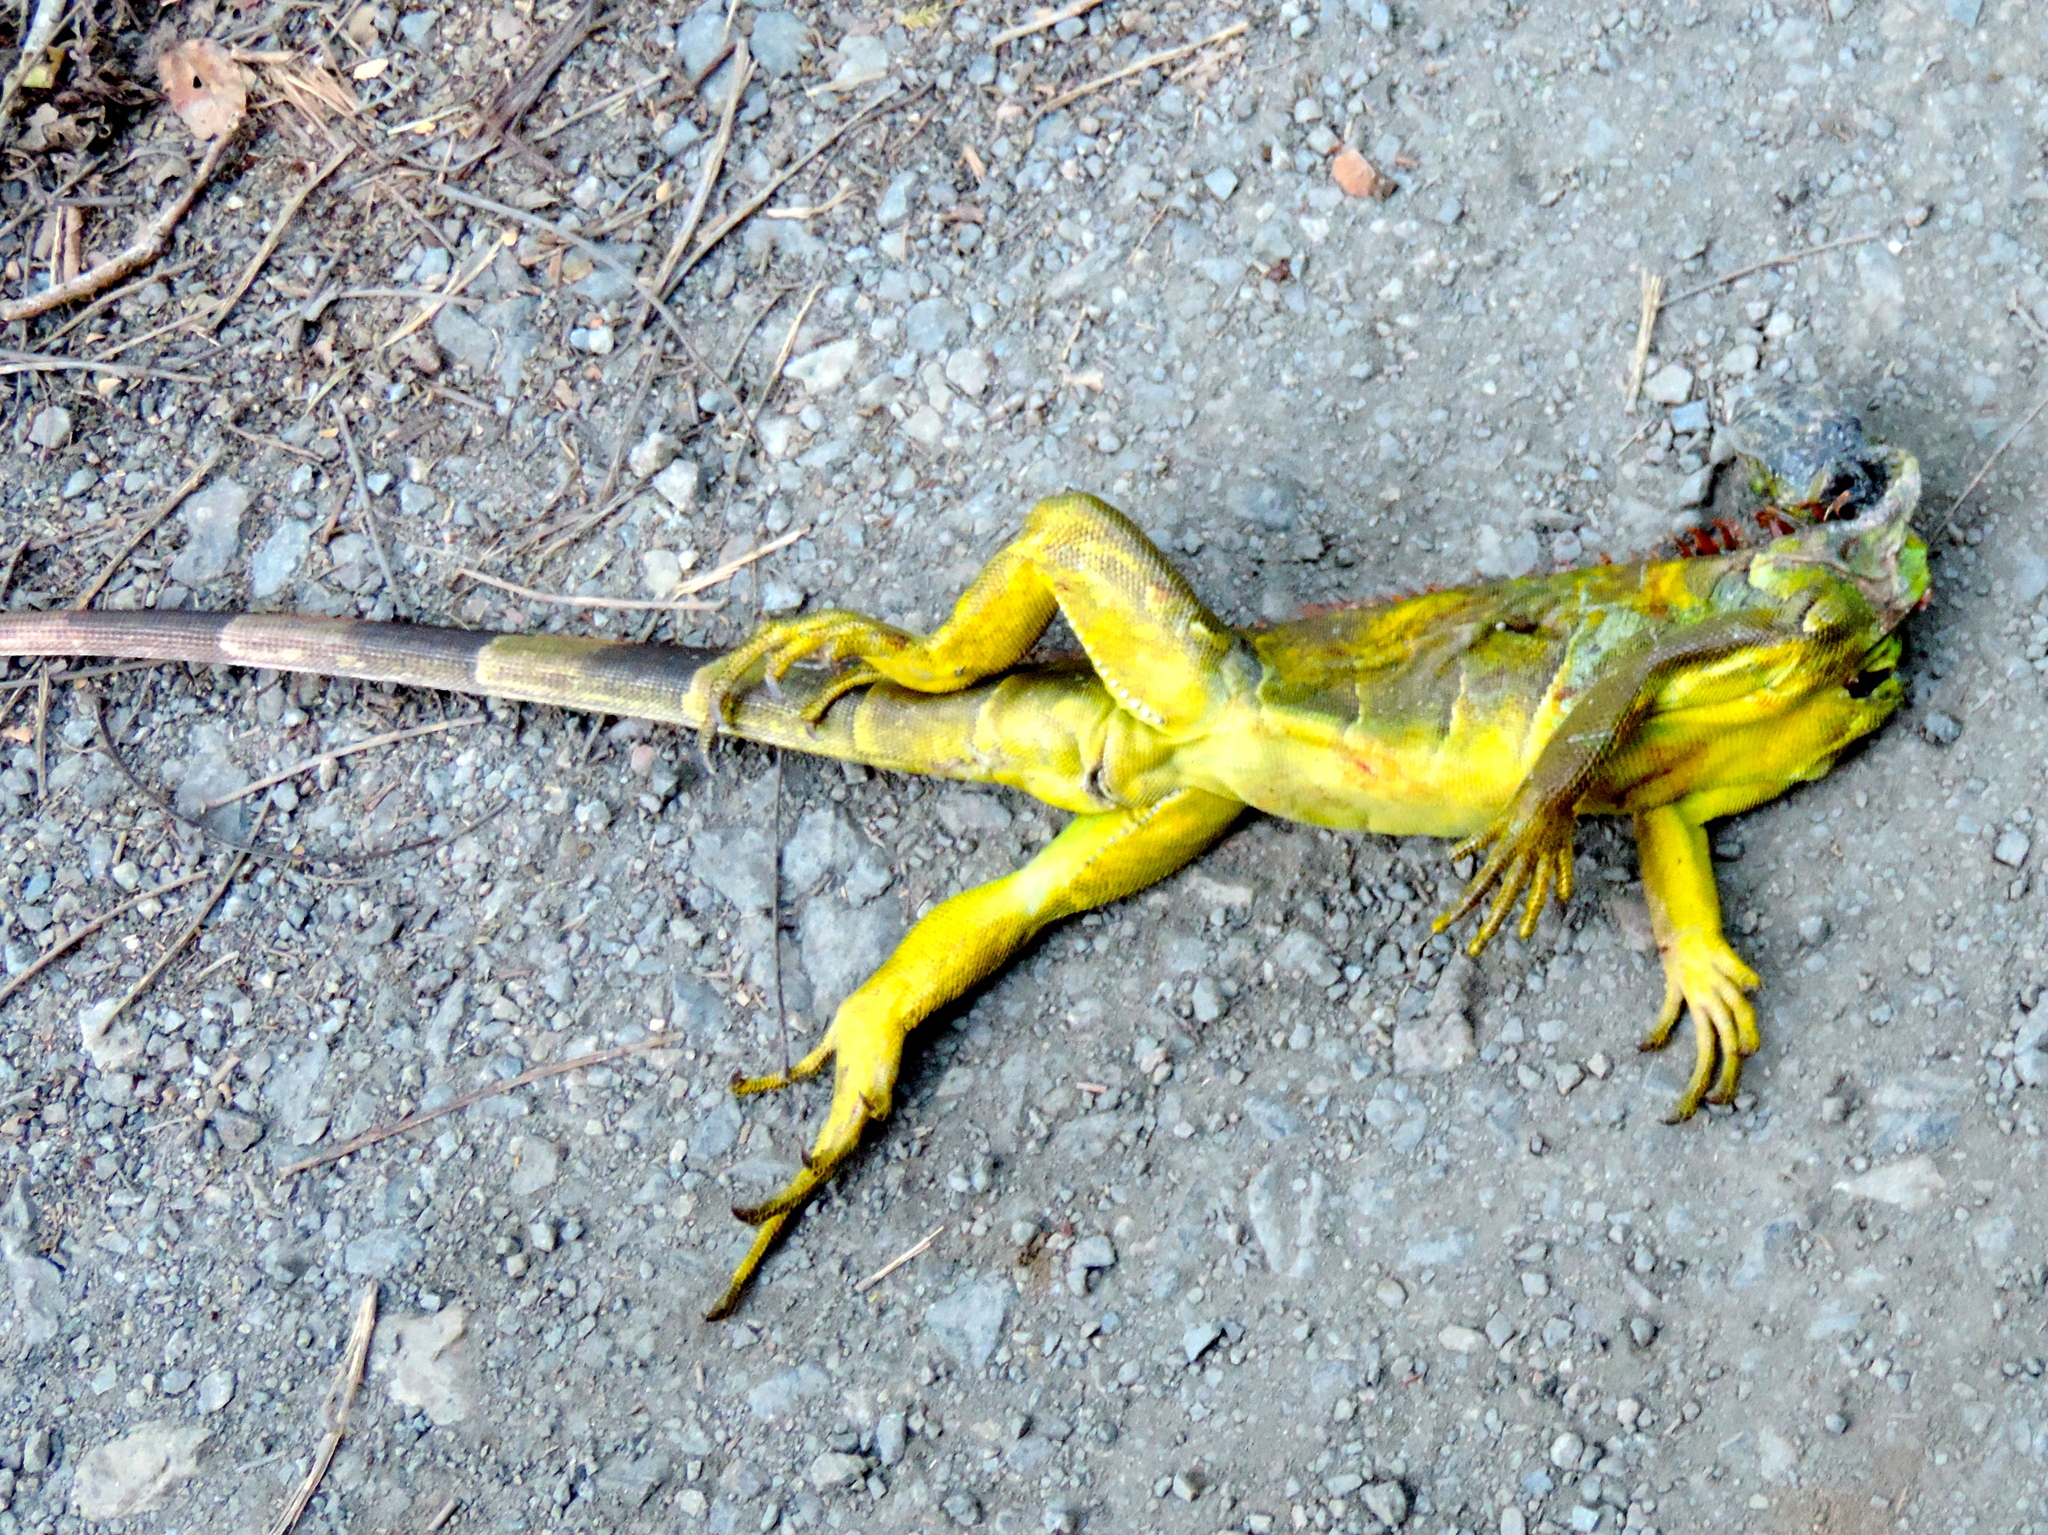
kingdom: Animalia
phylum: Chordata
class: Squamata
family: Iguanidae
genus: Iguana
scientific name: Iguana iguana
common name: Green iguana
